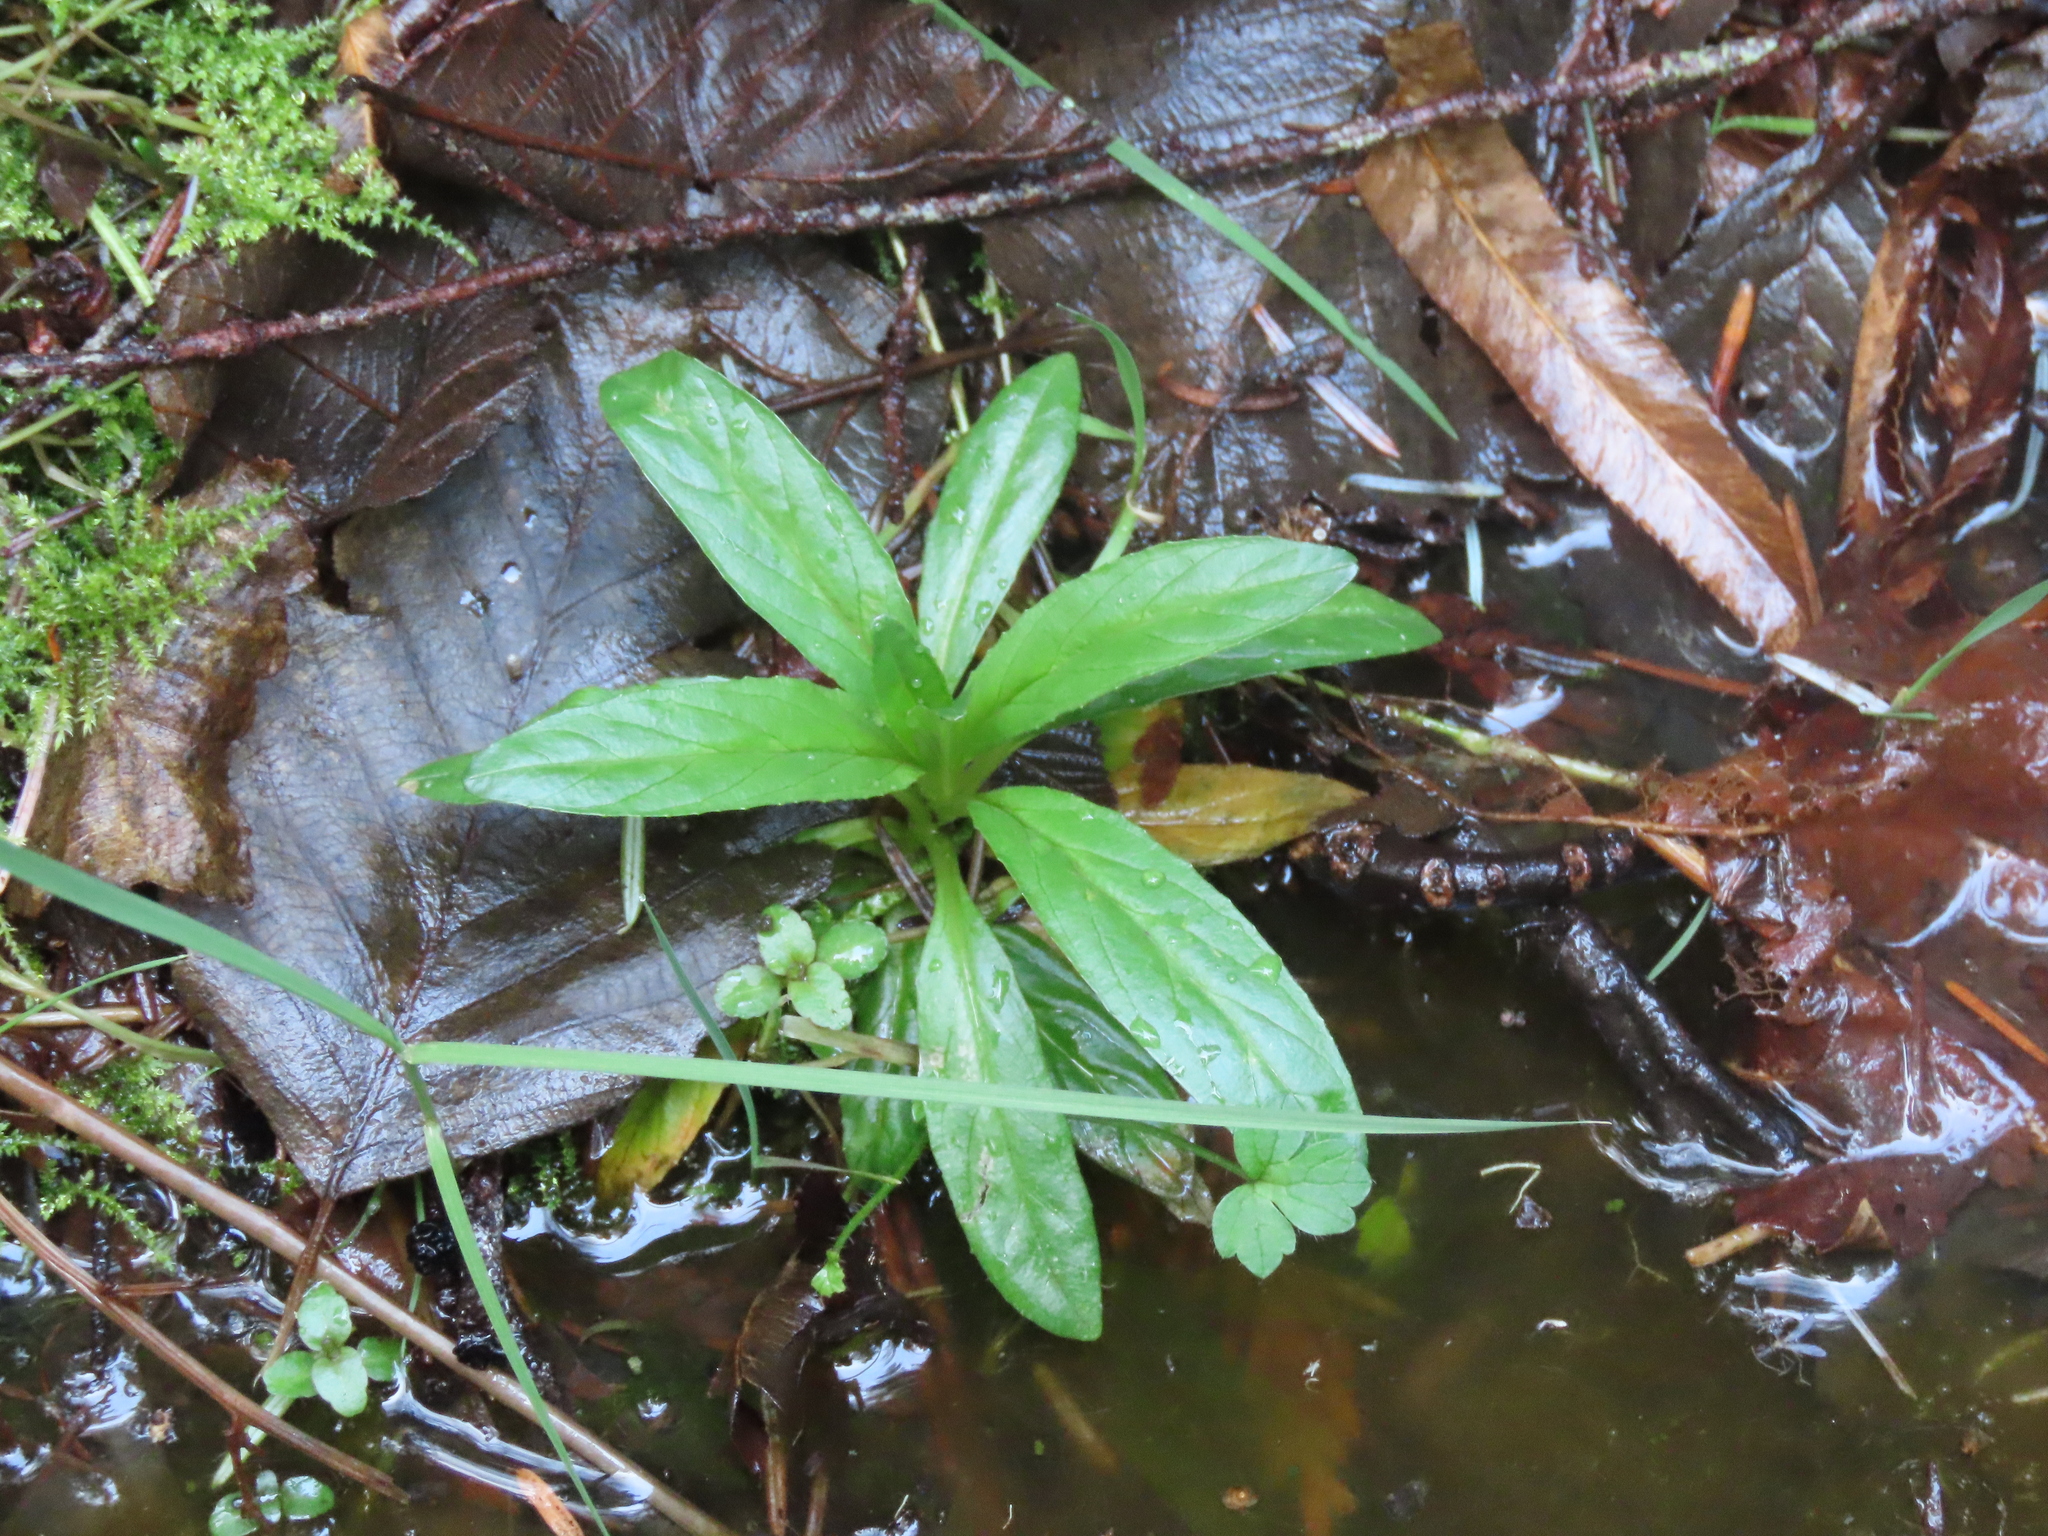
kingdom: Plantae
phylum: Tracheophyta
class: Magnoliopsida
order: Myrtales
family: Onagraceae
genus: Epilobium
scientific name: Epilobium ciliatum
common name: American willowherb
